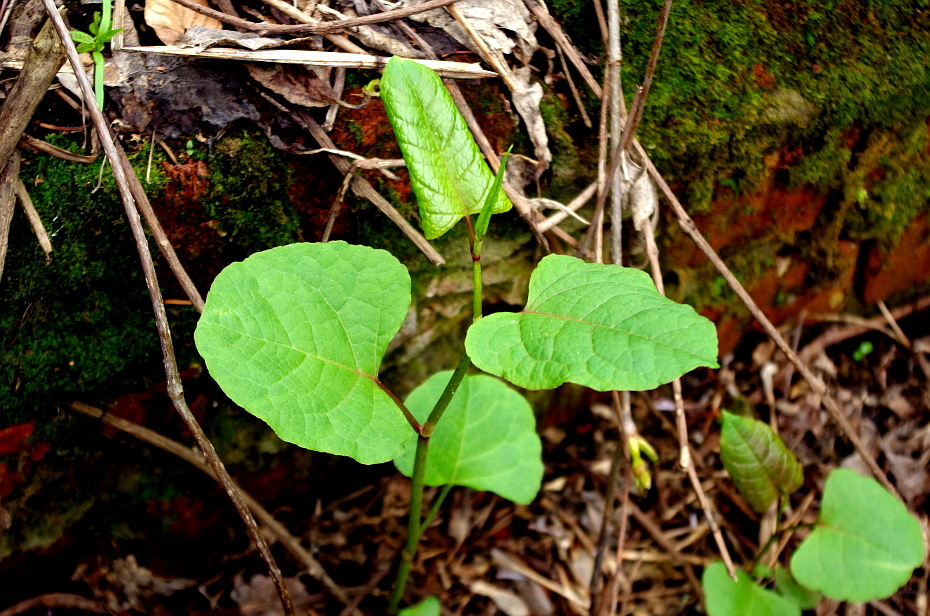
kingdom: Plantae
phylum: Tracheophyta
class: Magnoliopsida
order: Caryophyllales
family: Polygonaceae
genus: Reynoutria
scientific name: Reynoutria bohemica
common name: Bohemian knotweed
